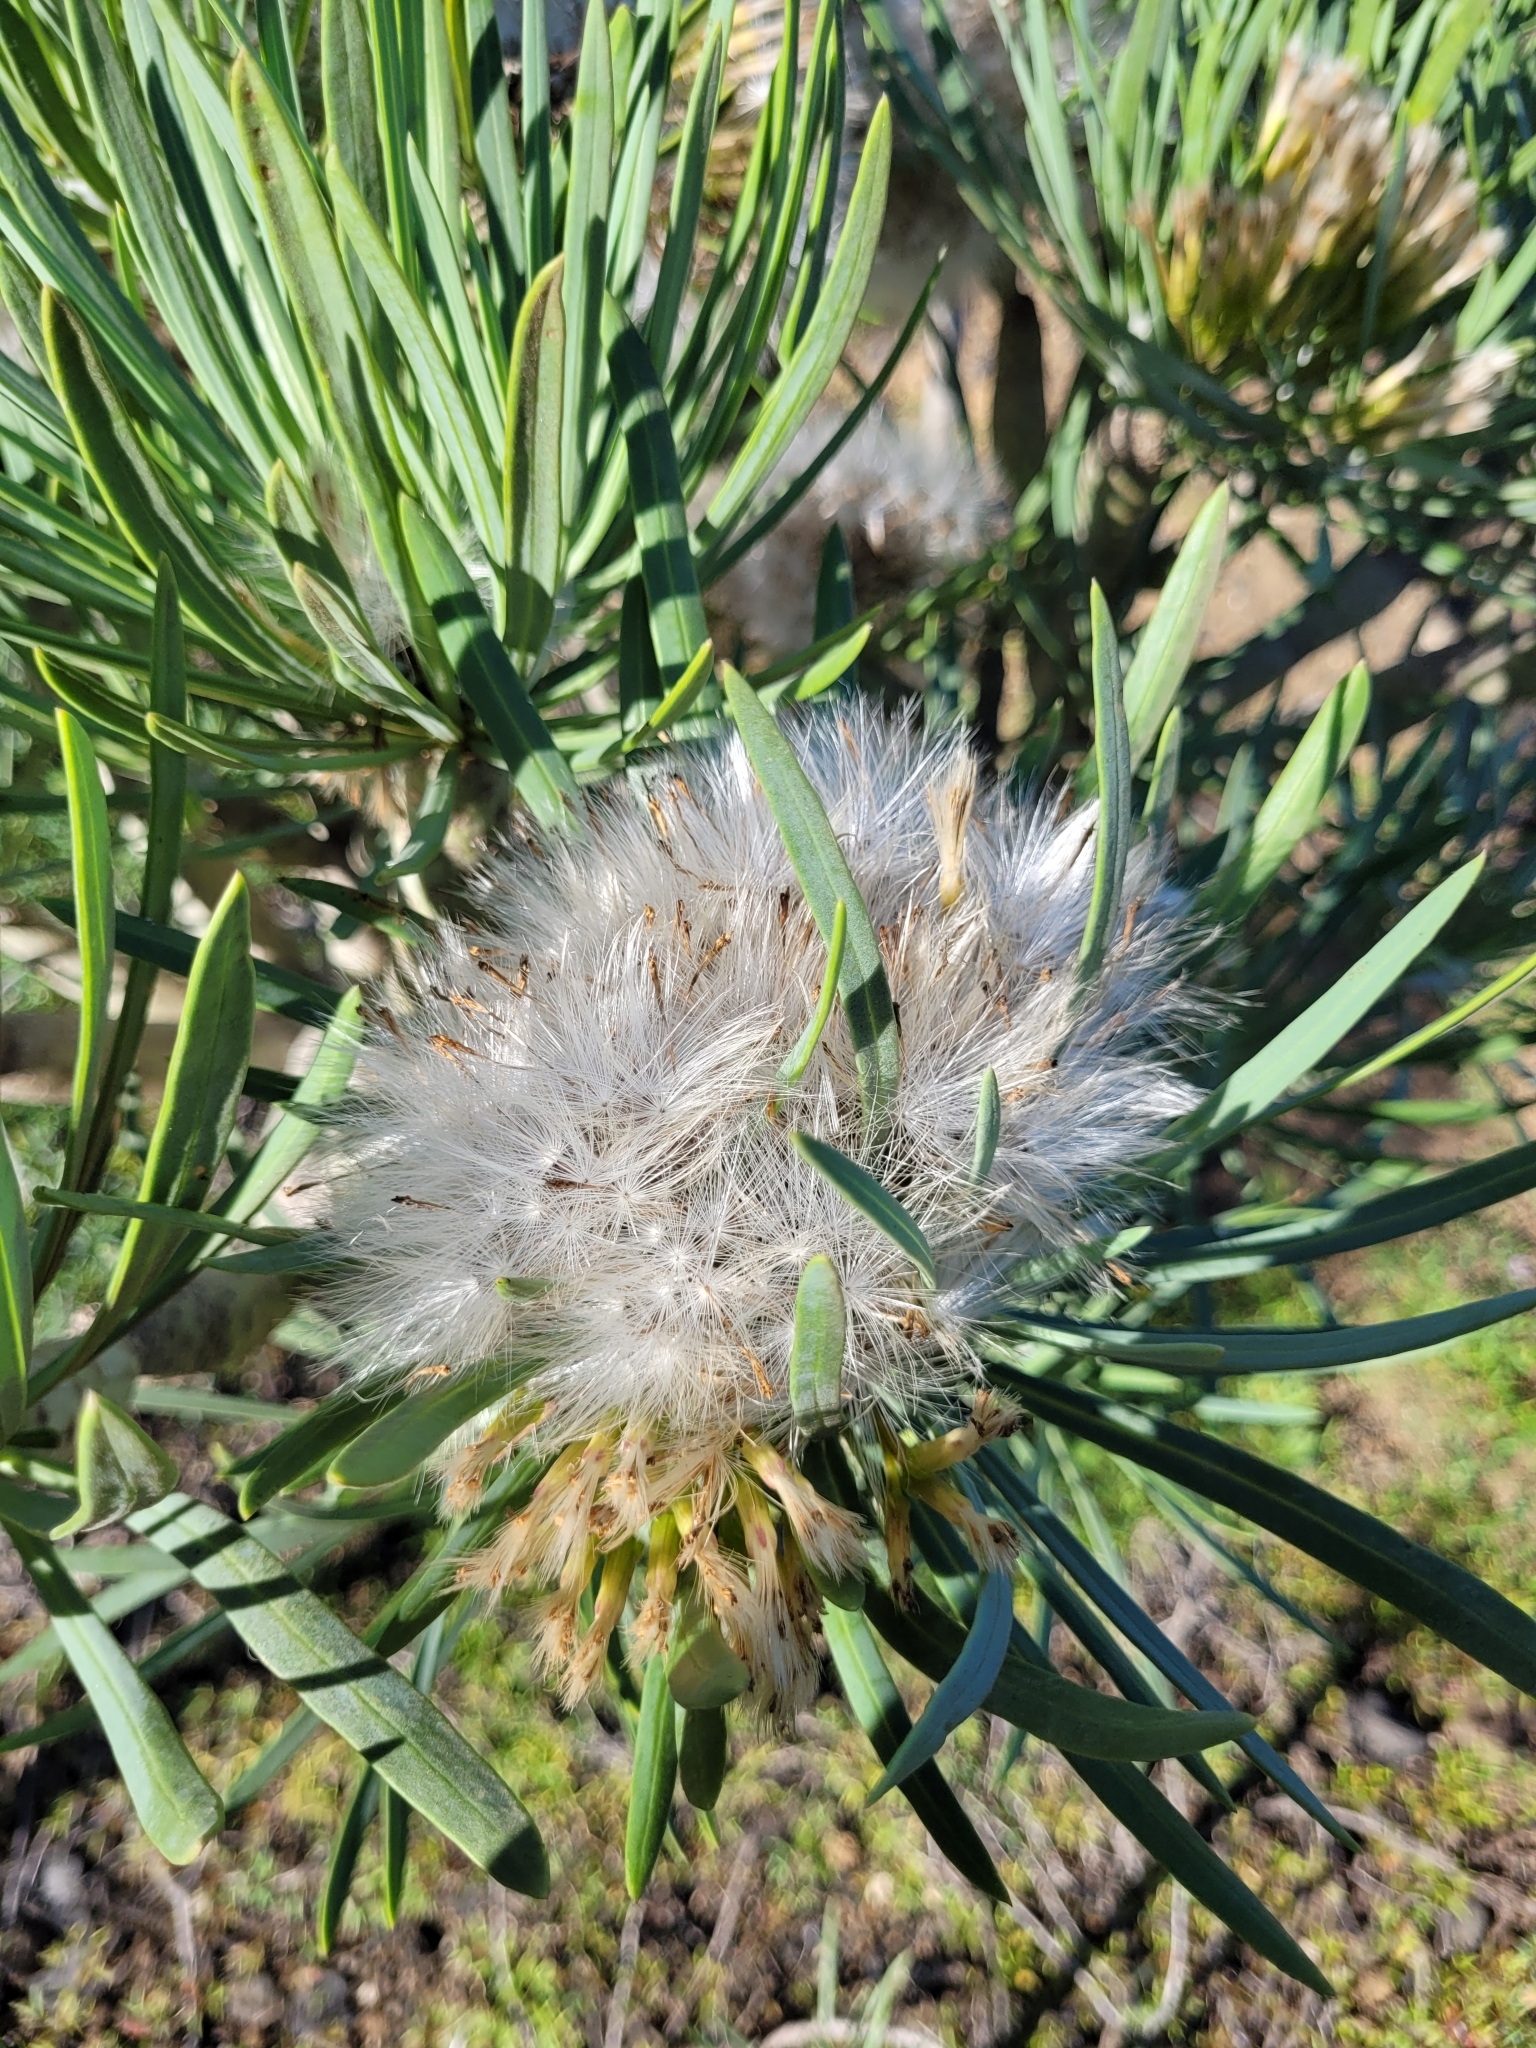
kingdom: Plantae
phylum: Tracheophyta
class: Magnoliopsida
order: Asterales
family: Asteraceae
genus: Kleinia
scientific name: Kleinia neriifolia
